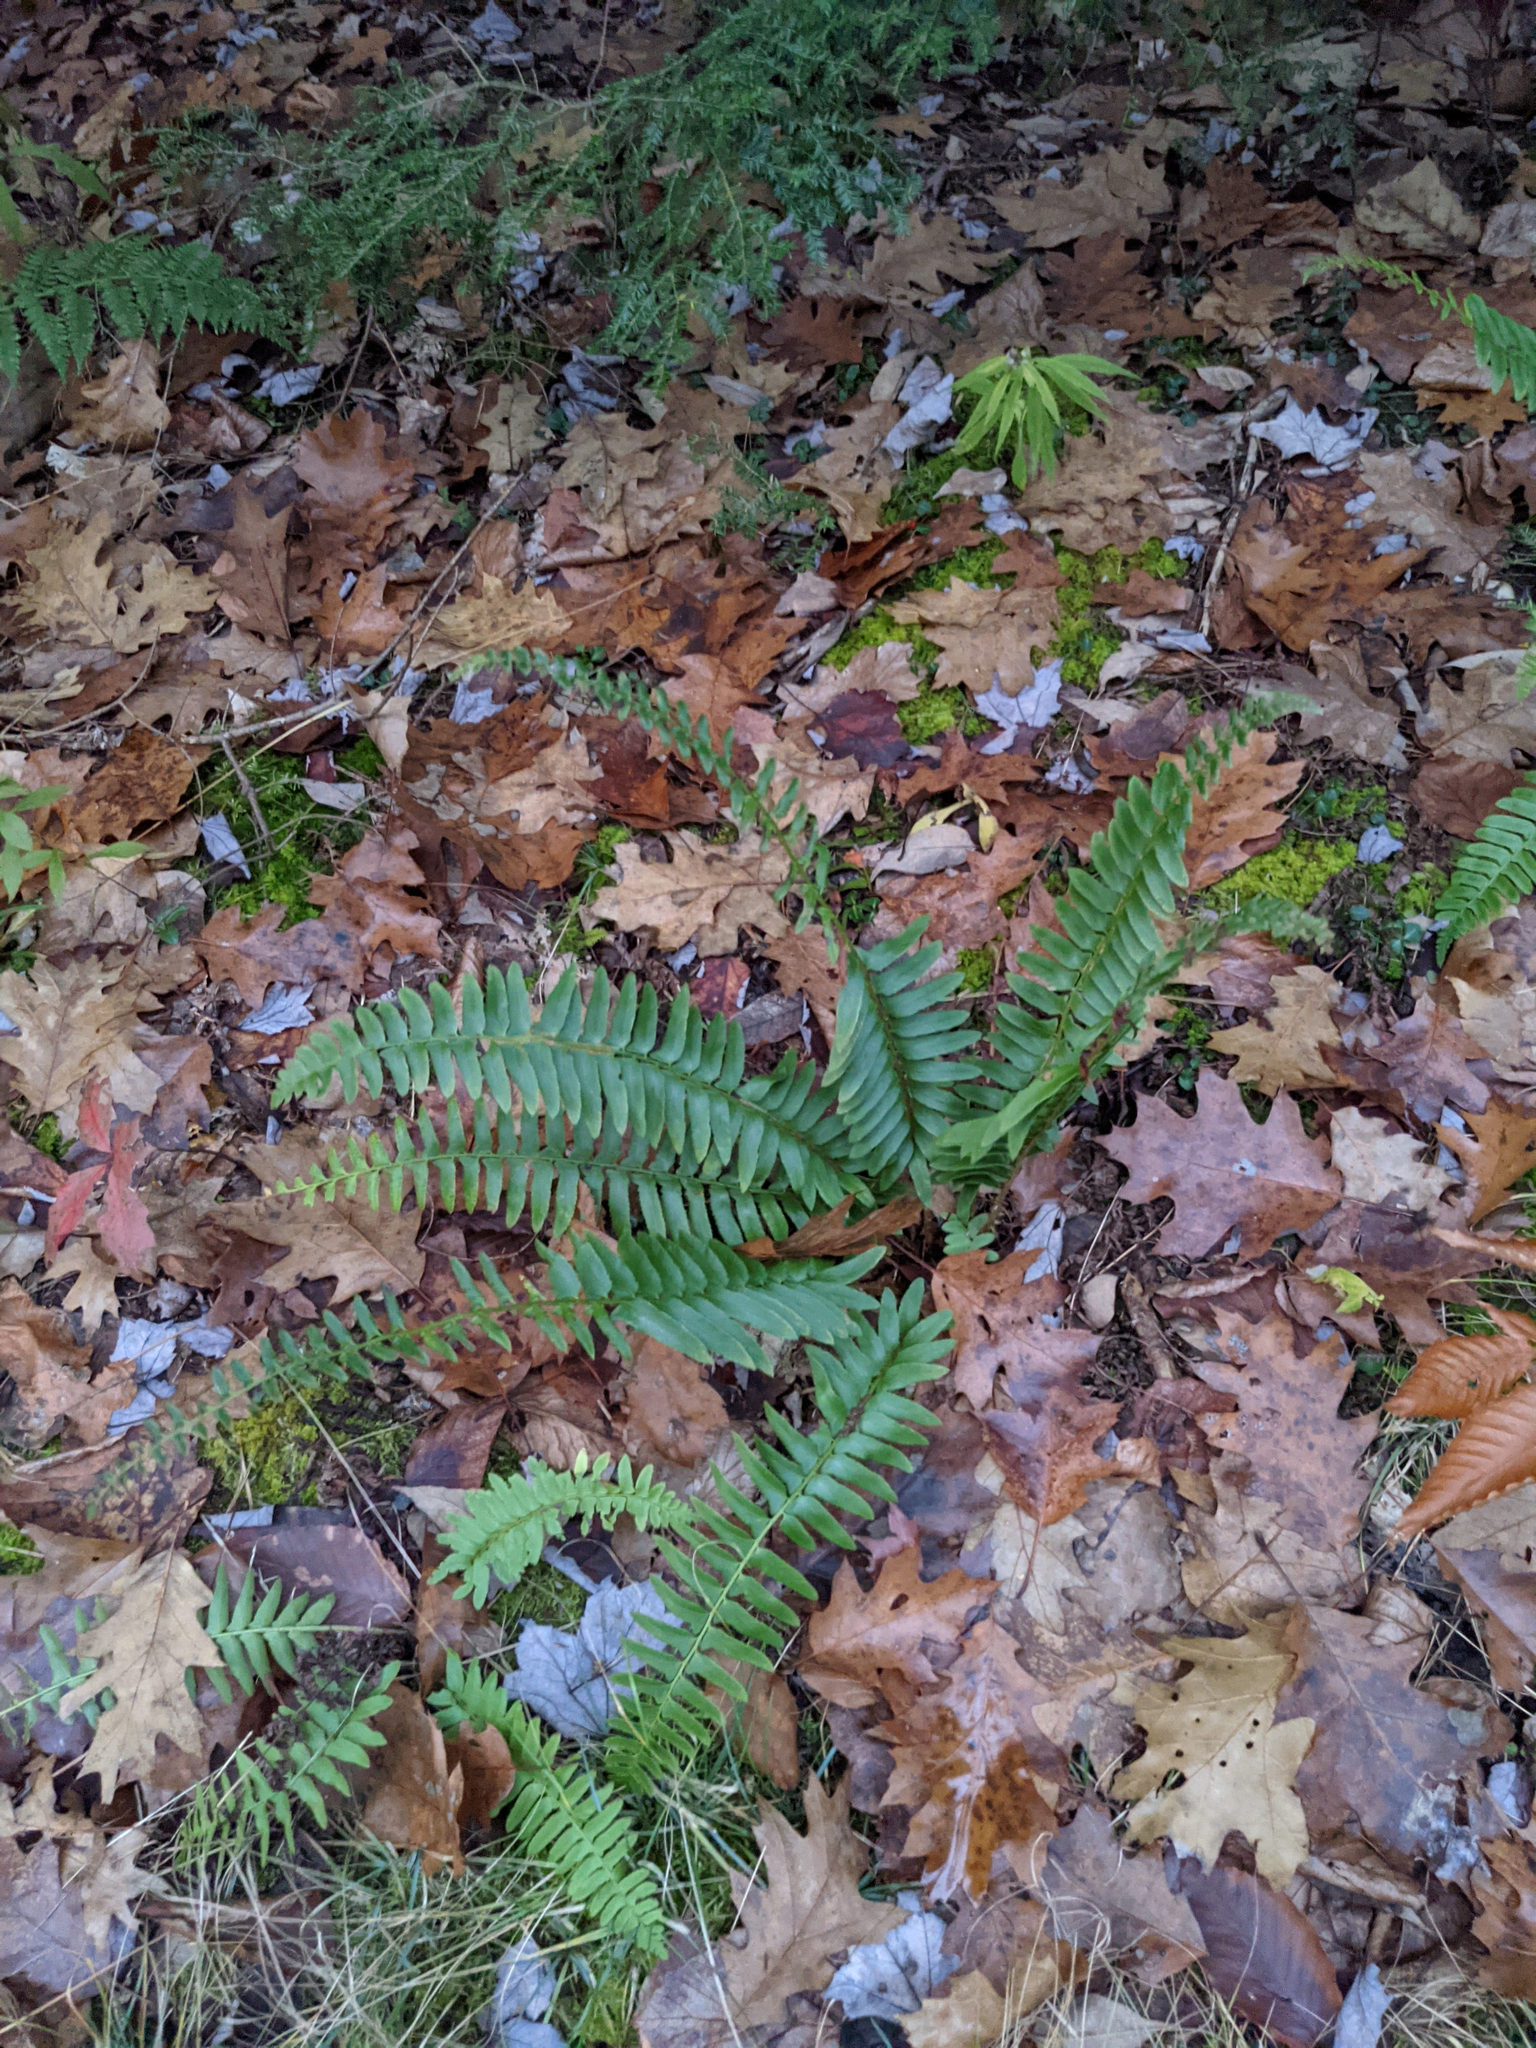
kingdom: Plantae
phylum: Tracheophyta
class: Polypodiopsida
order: Polypodiales
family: Dryopteridaceae
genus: Polystichum
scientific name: Polystichum acrostichoides
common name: Christmas fern
